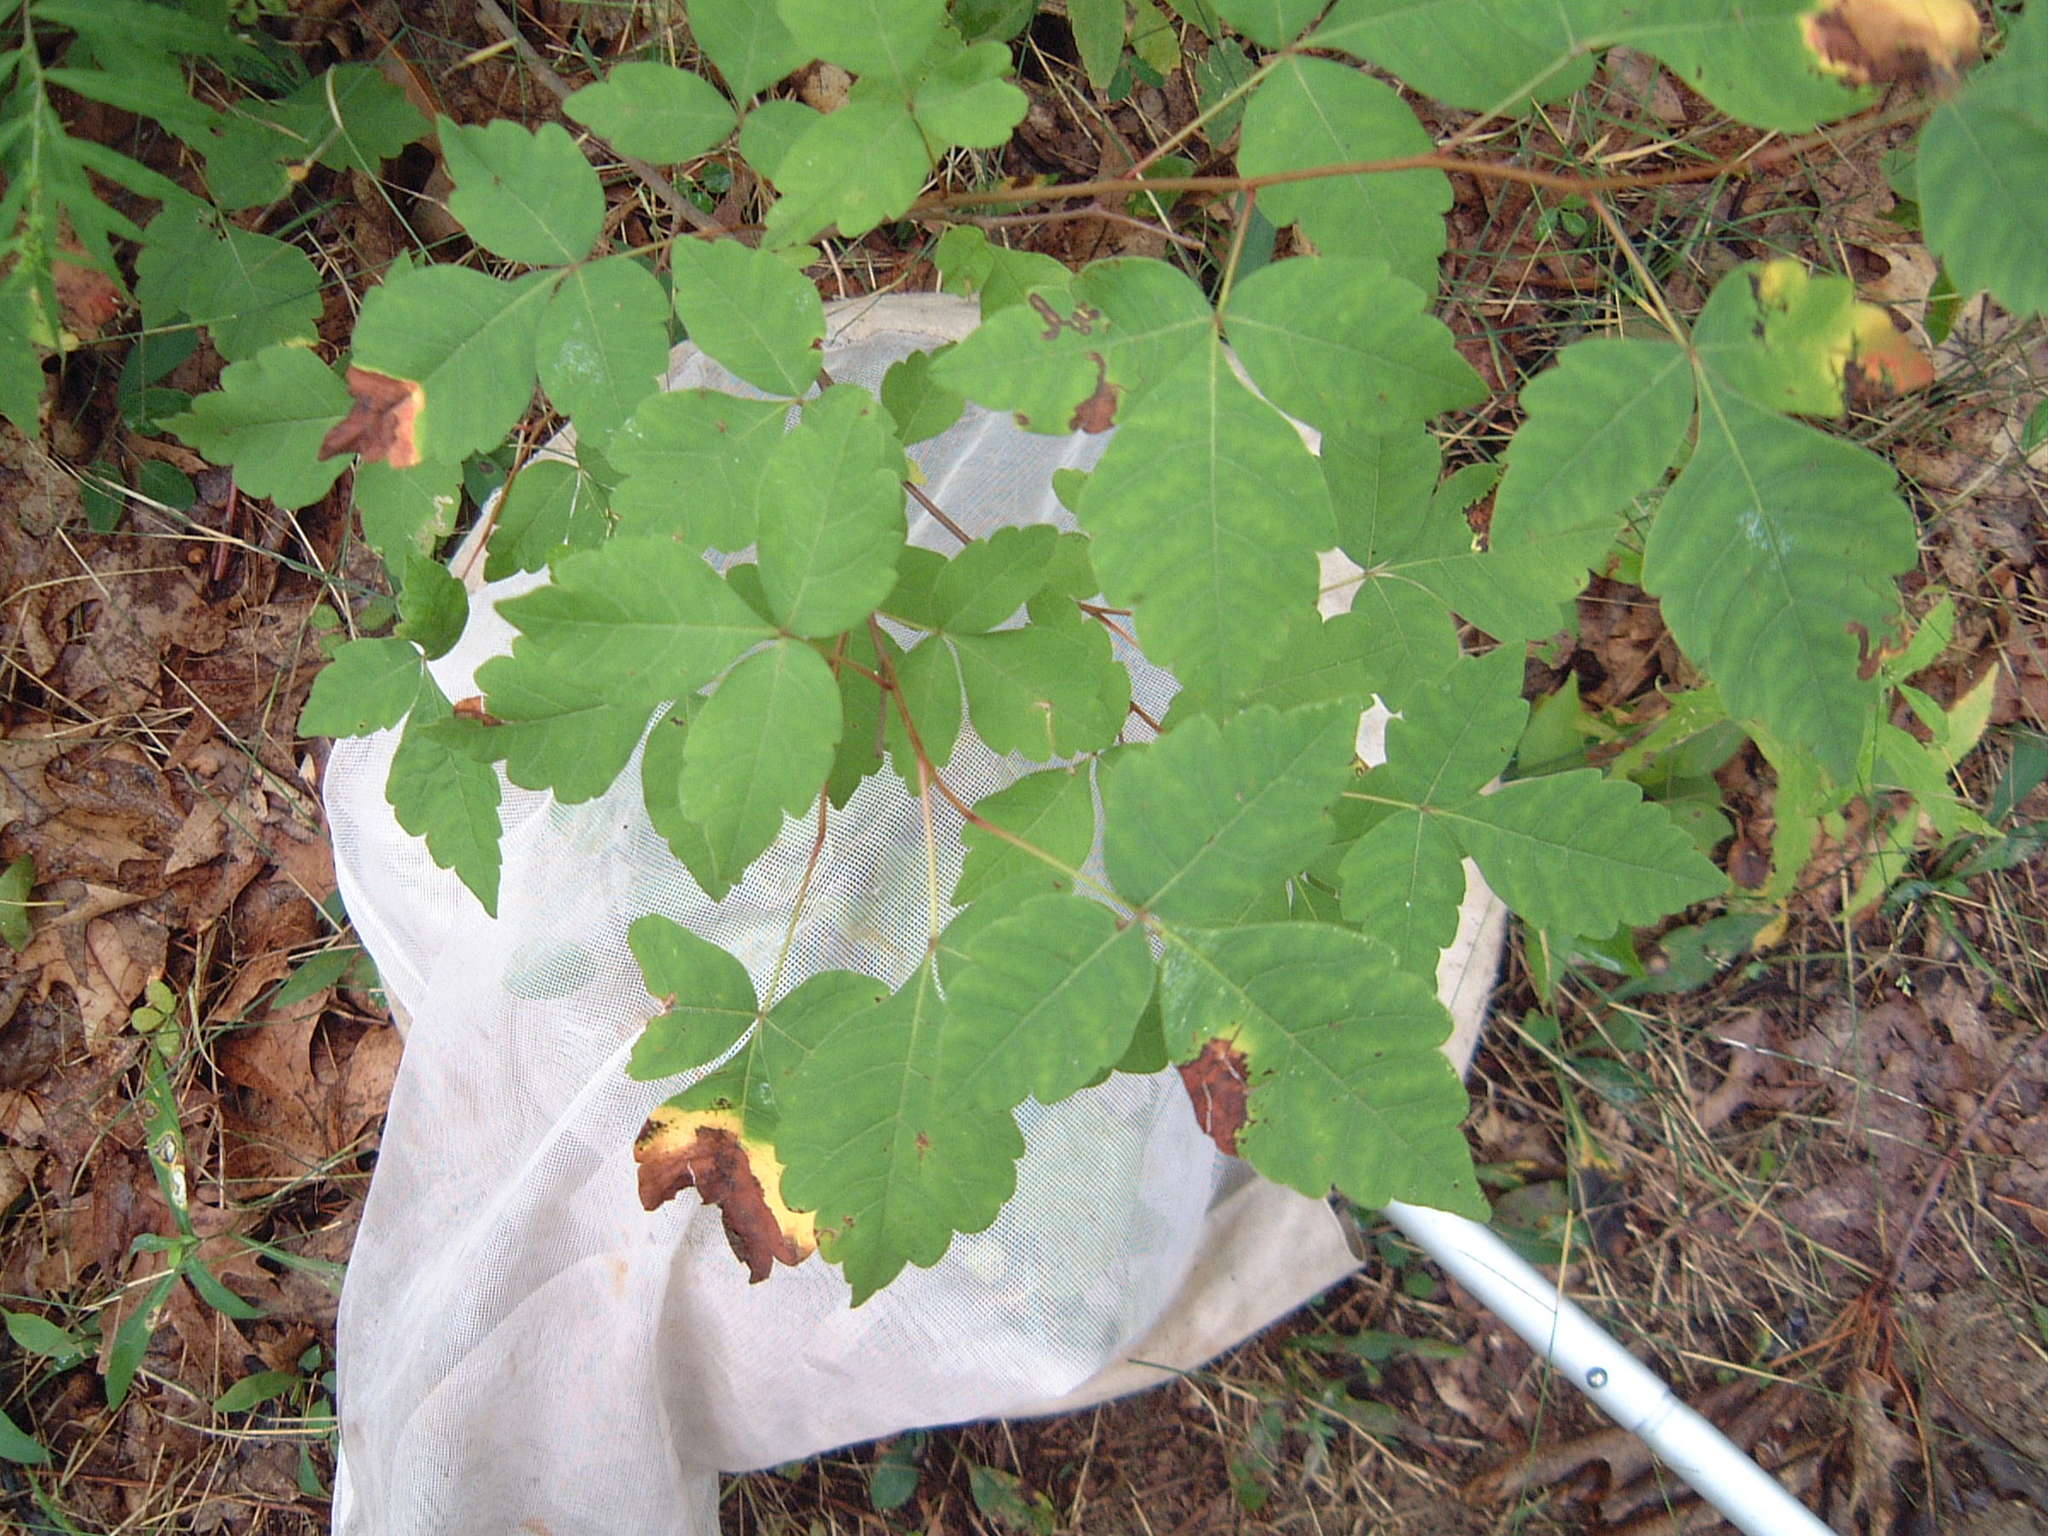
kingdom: Plantae
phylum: Tracheophyta
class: Magnoliopsida
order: Sapindales
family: Anacardiaceae
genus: Rhus
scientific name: Rhus aromatica
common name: Aromatic sumac
